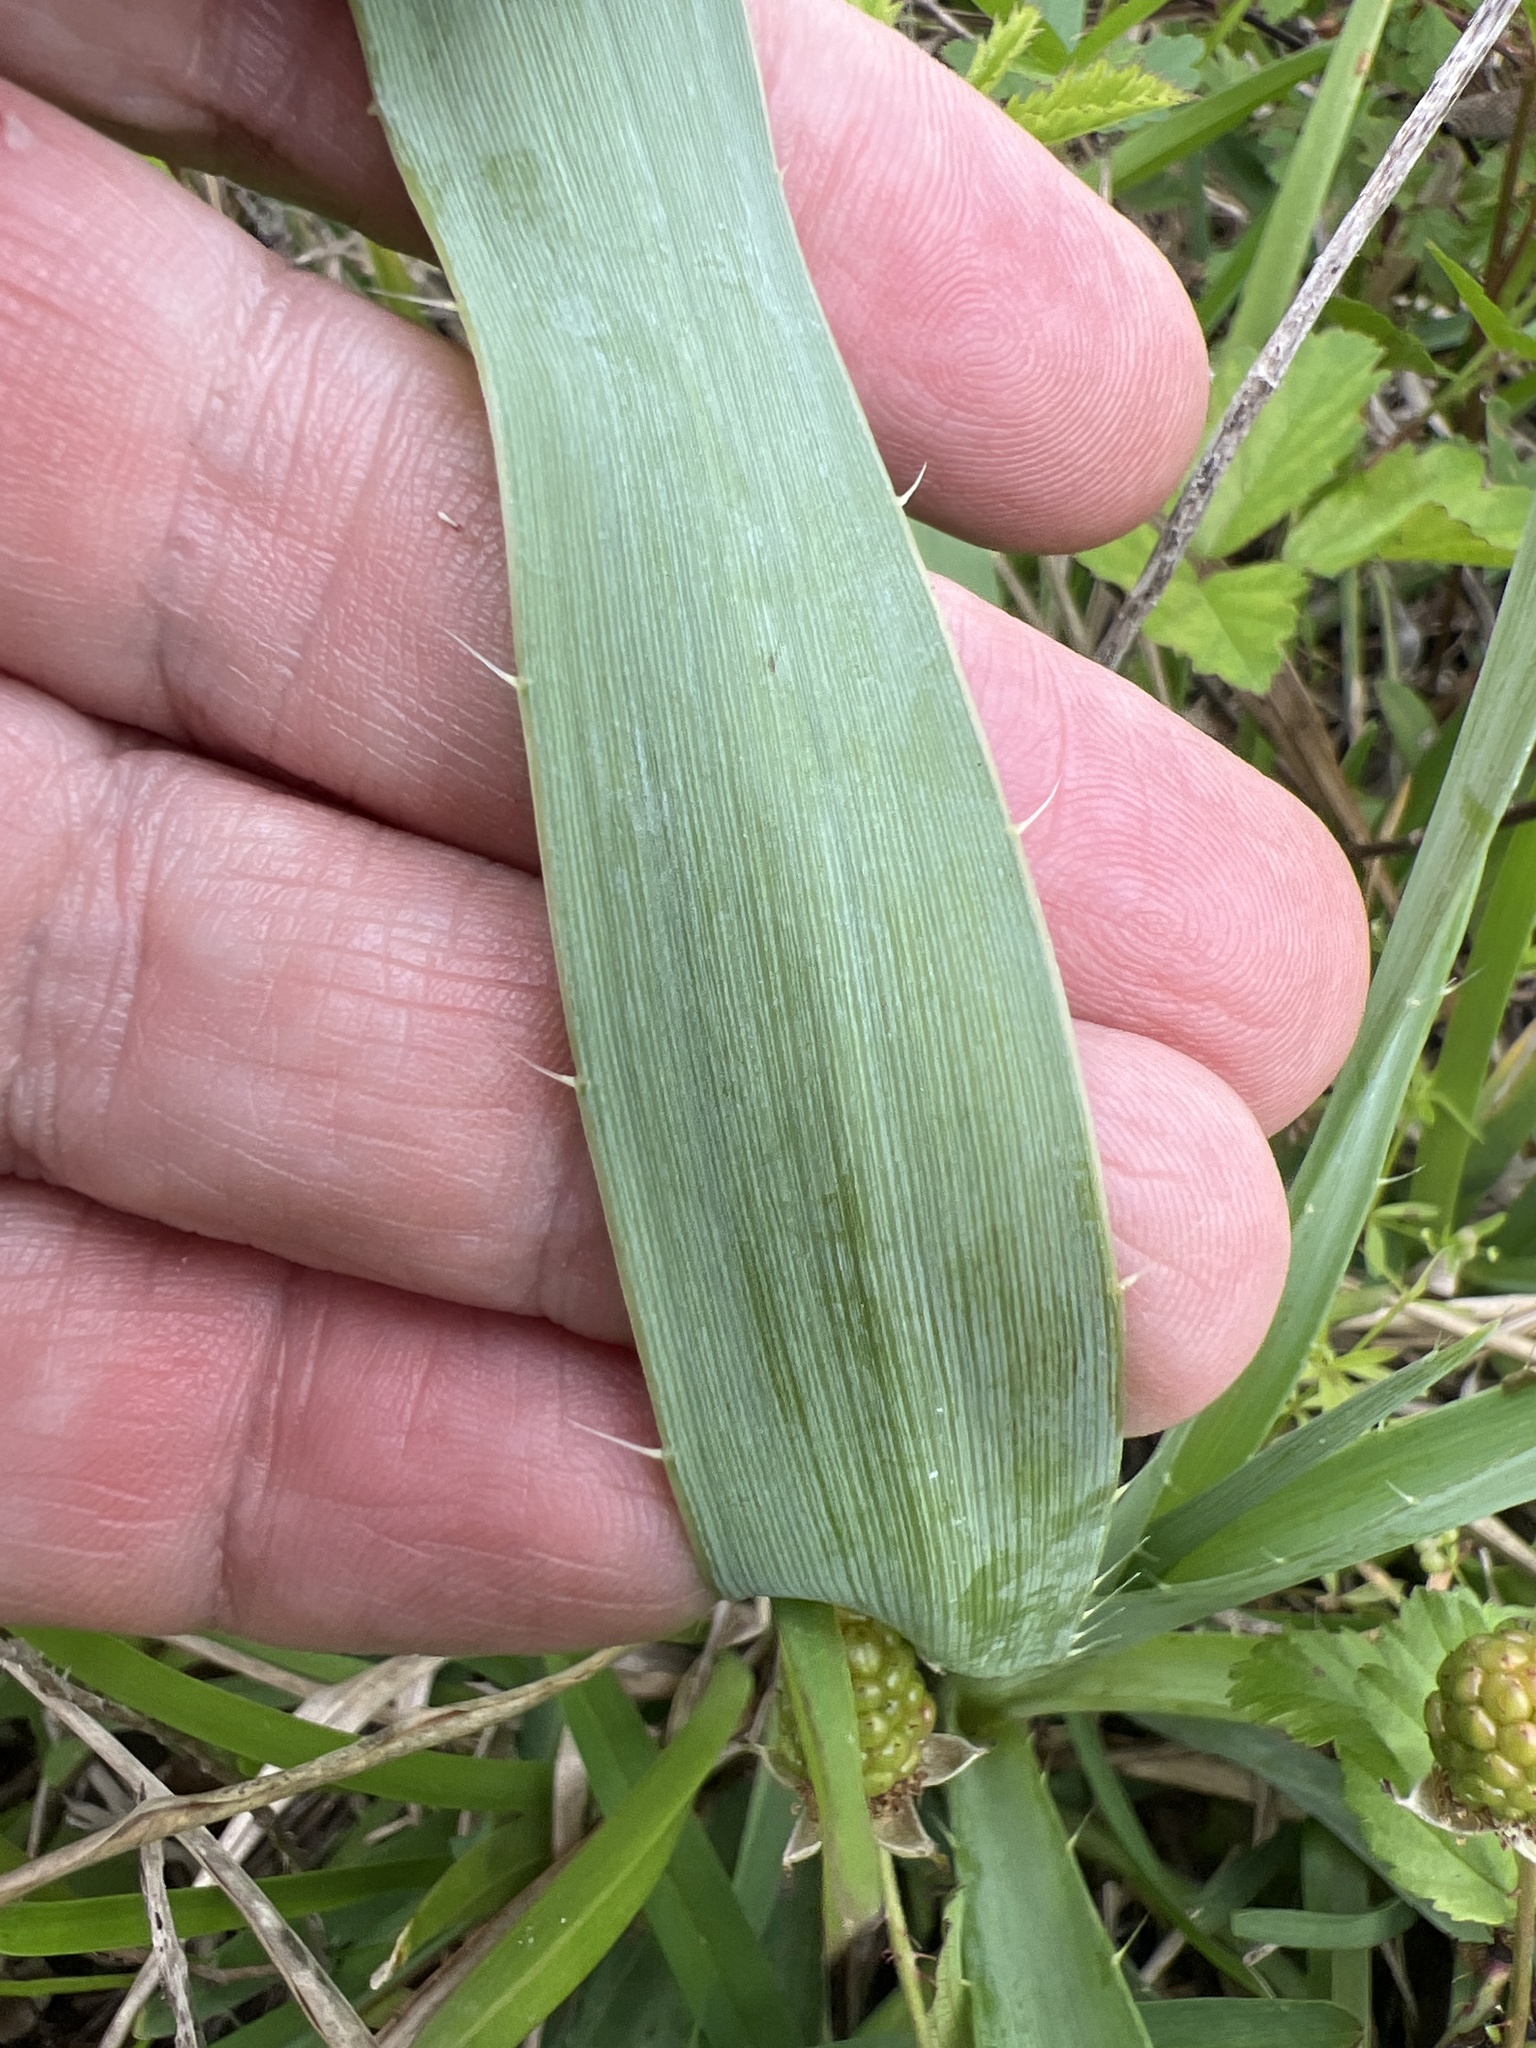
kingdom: Plantae
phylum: Tracheophyta
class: Magnoliopsida
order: Apiales
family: Apiaceae
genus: Eryngium
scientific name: Eryngium yuccifolium
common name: Button eryngo
